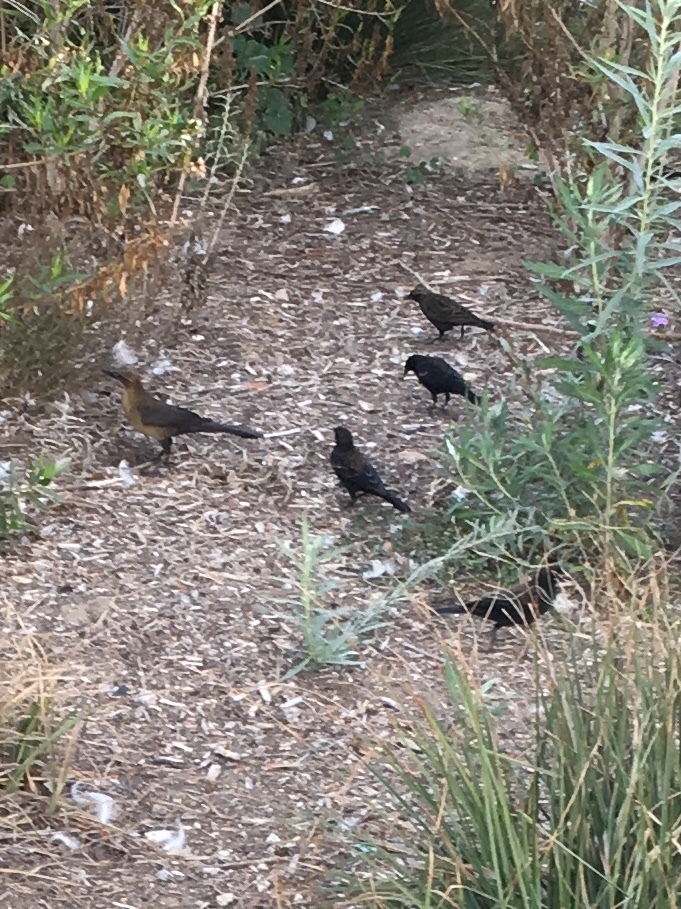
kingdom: Animalia
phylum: Chordata
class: Aves
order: Passeriformes
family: Icteridae
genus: Agelaius
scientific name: Agelaius phoeniceus
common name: Red-winged blackbird
